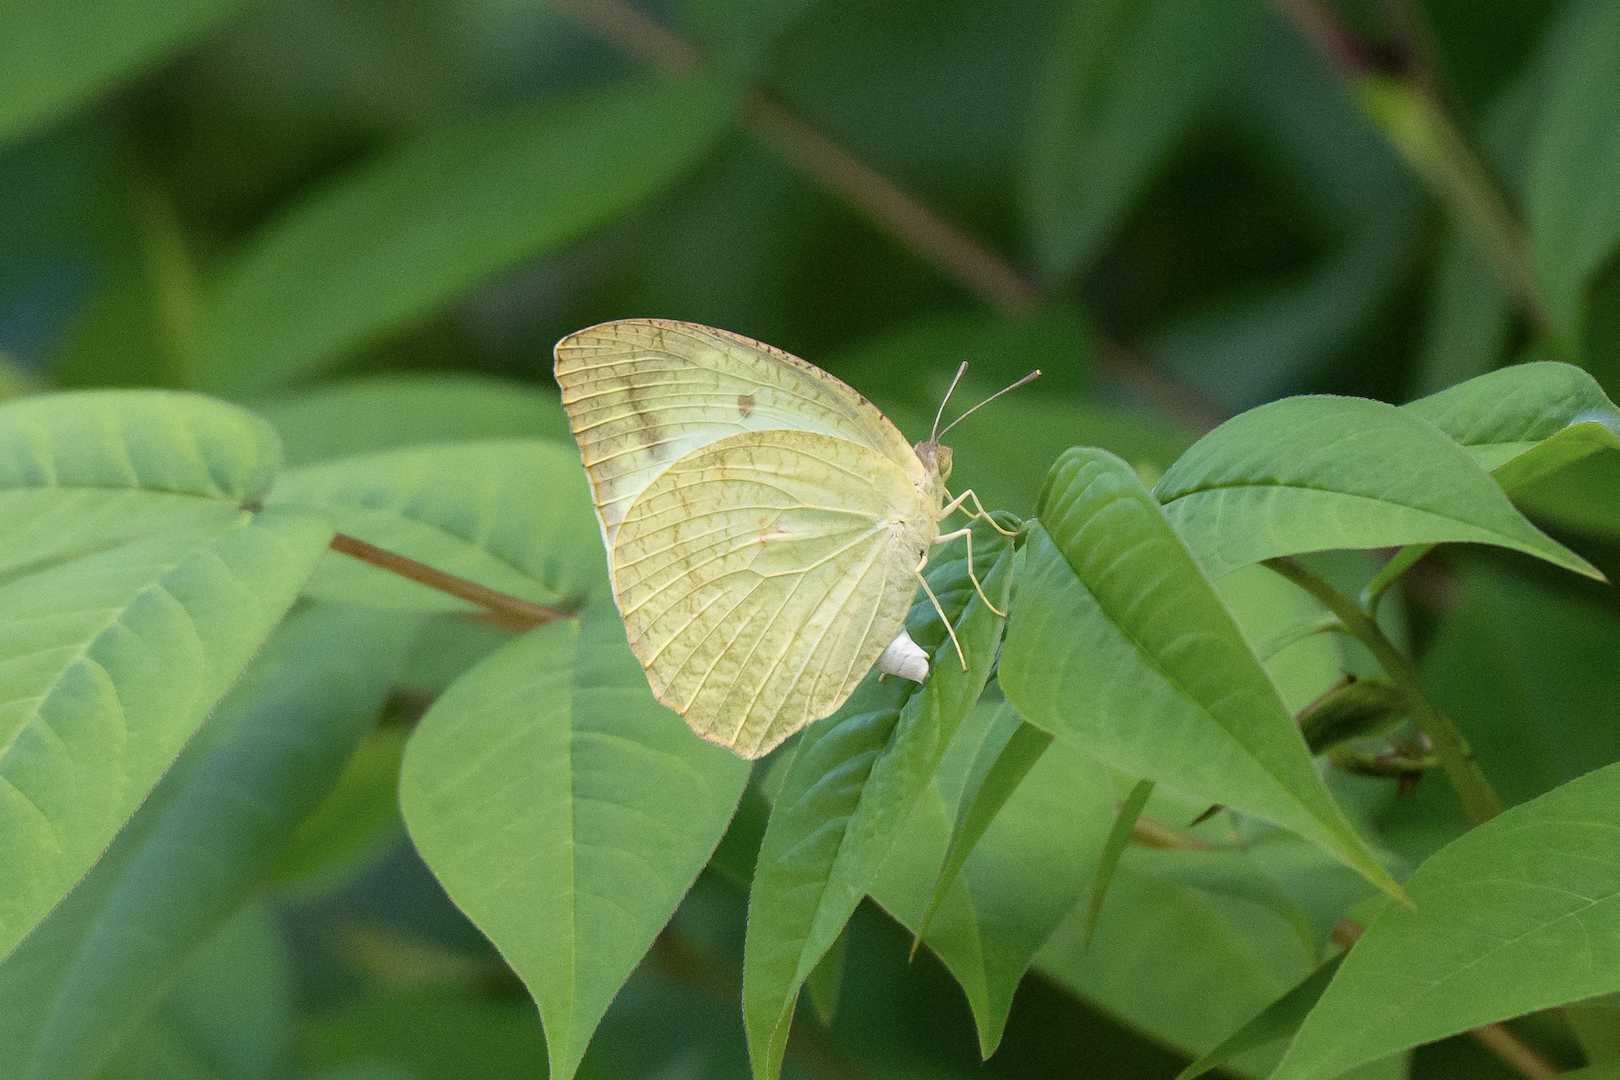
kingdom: Animalia
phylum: Arthropoda
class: Insecta
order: Lepidoptera
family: Pieridae
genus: Catopsilia
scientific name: Catopsilia pyranthe
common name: Mottled emigrant
